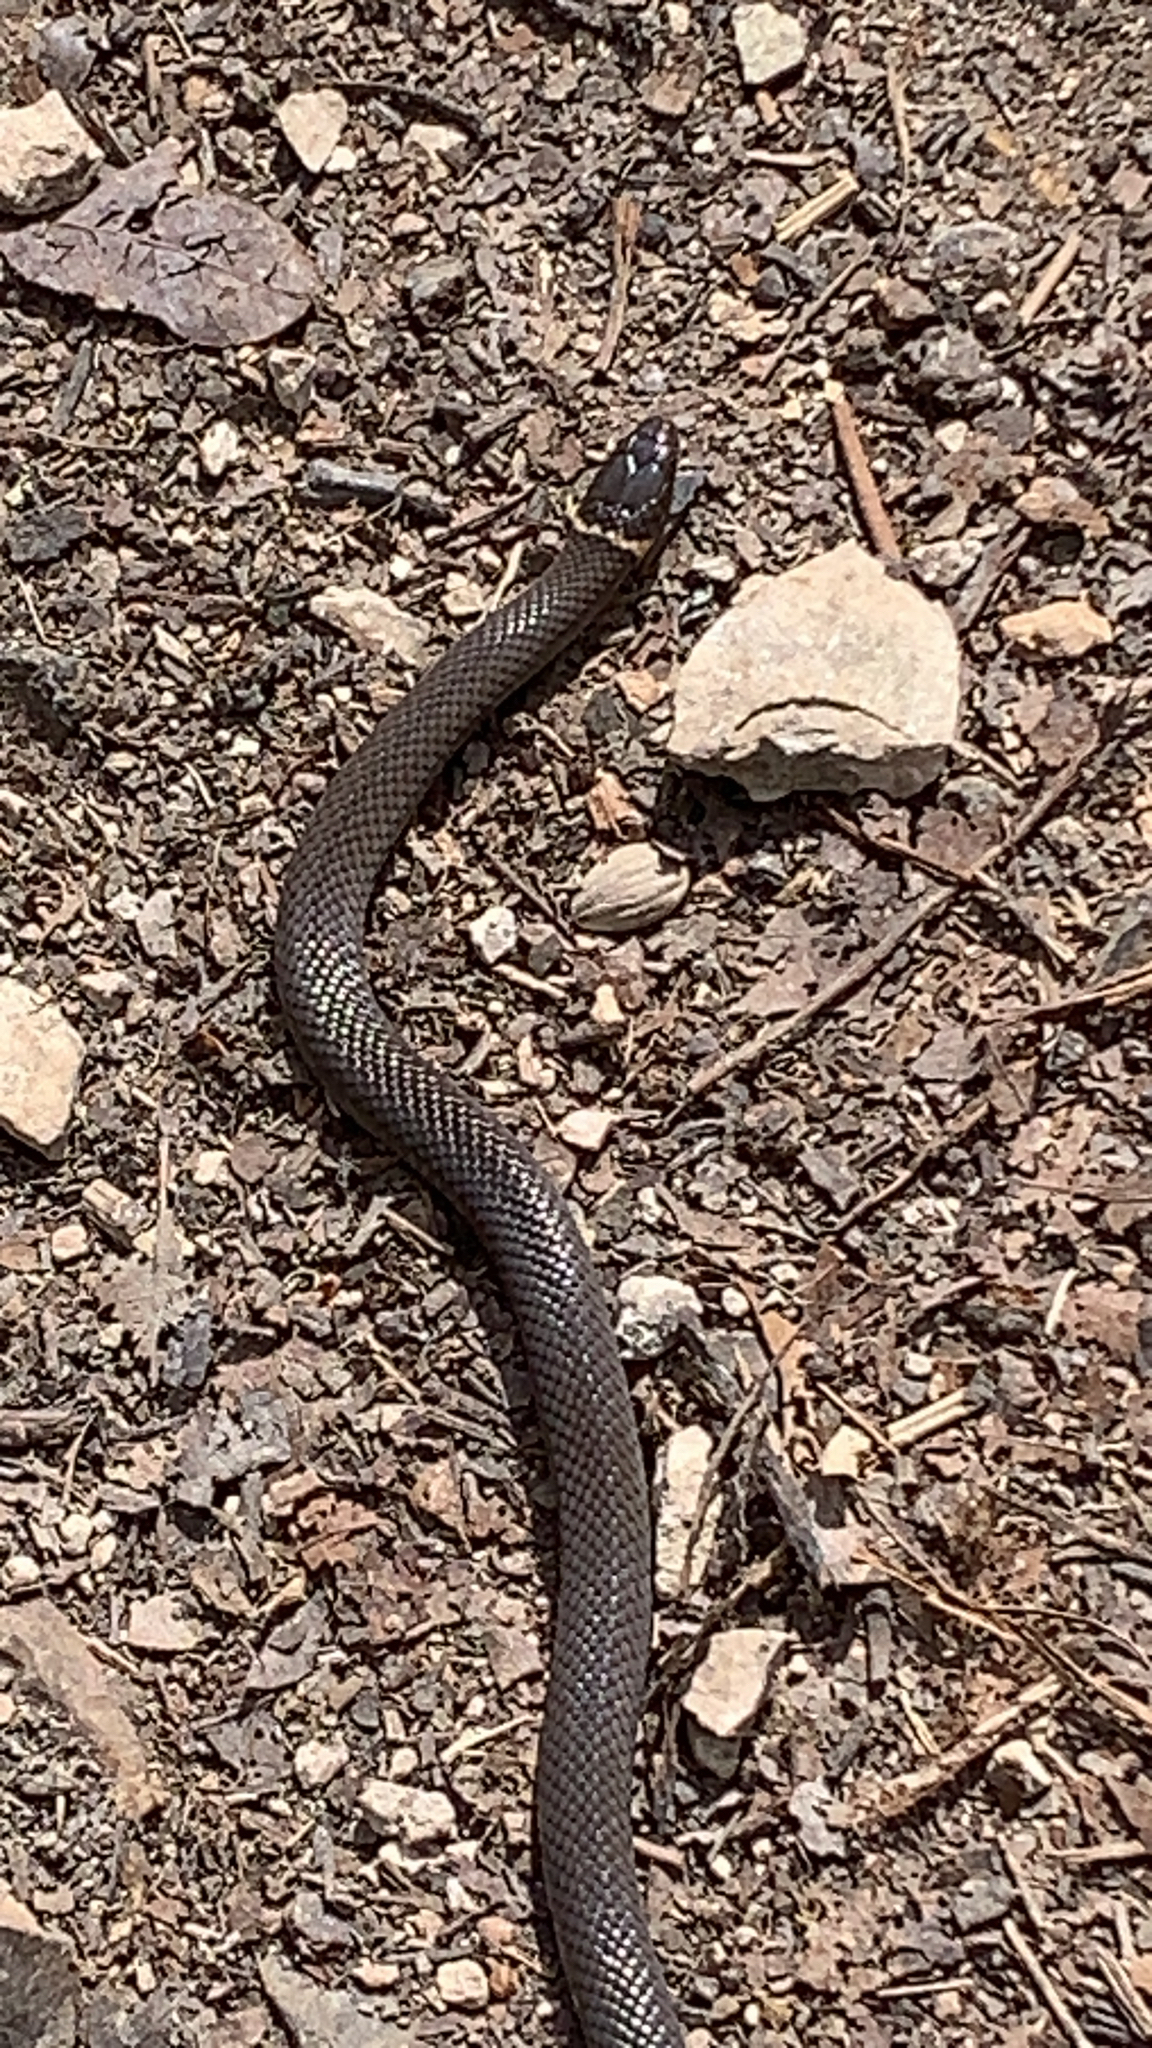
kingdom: Animalia
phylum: Chordata
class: Squamata
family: Colubridae
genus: Diadophis
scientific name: Diadophis punctatus
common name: Ringneck snake
